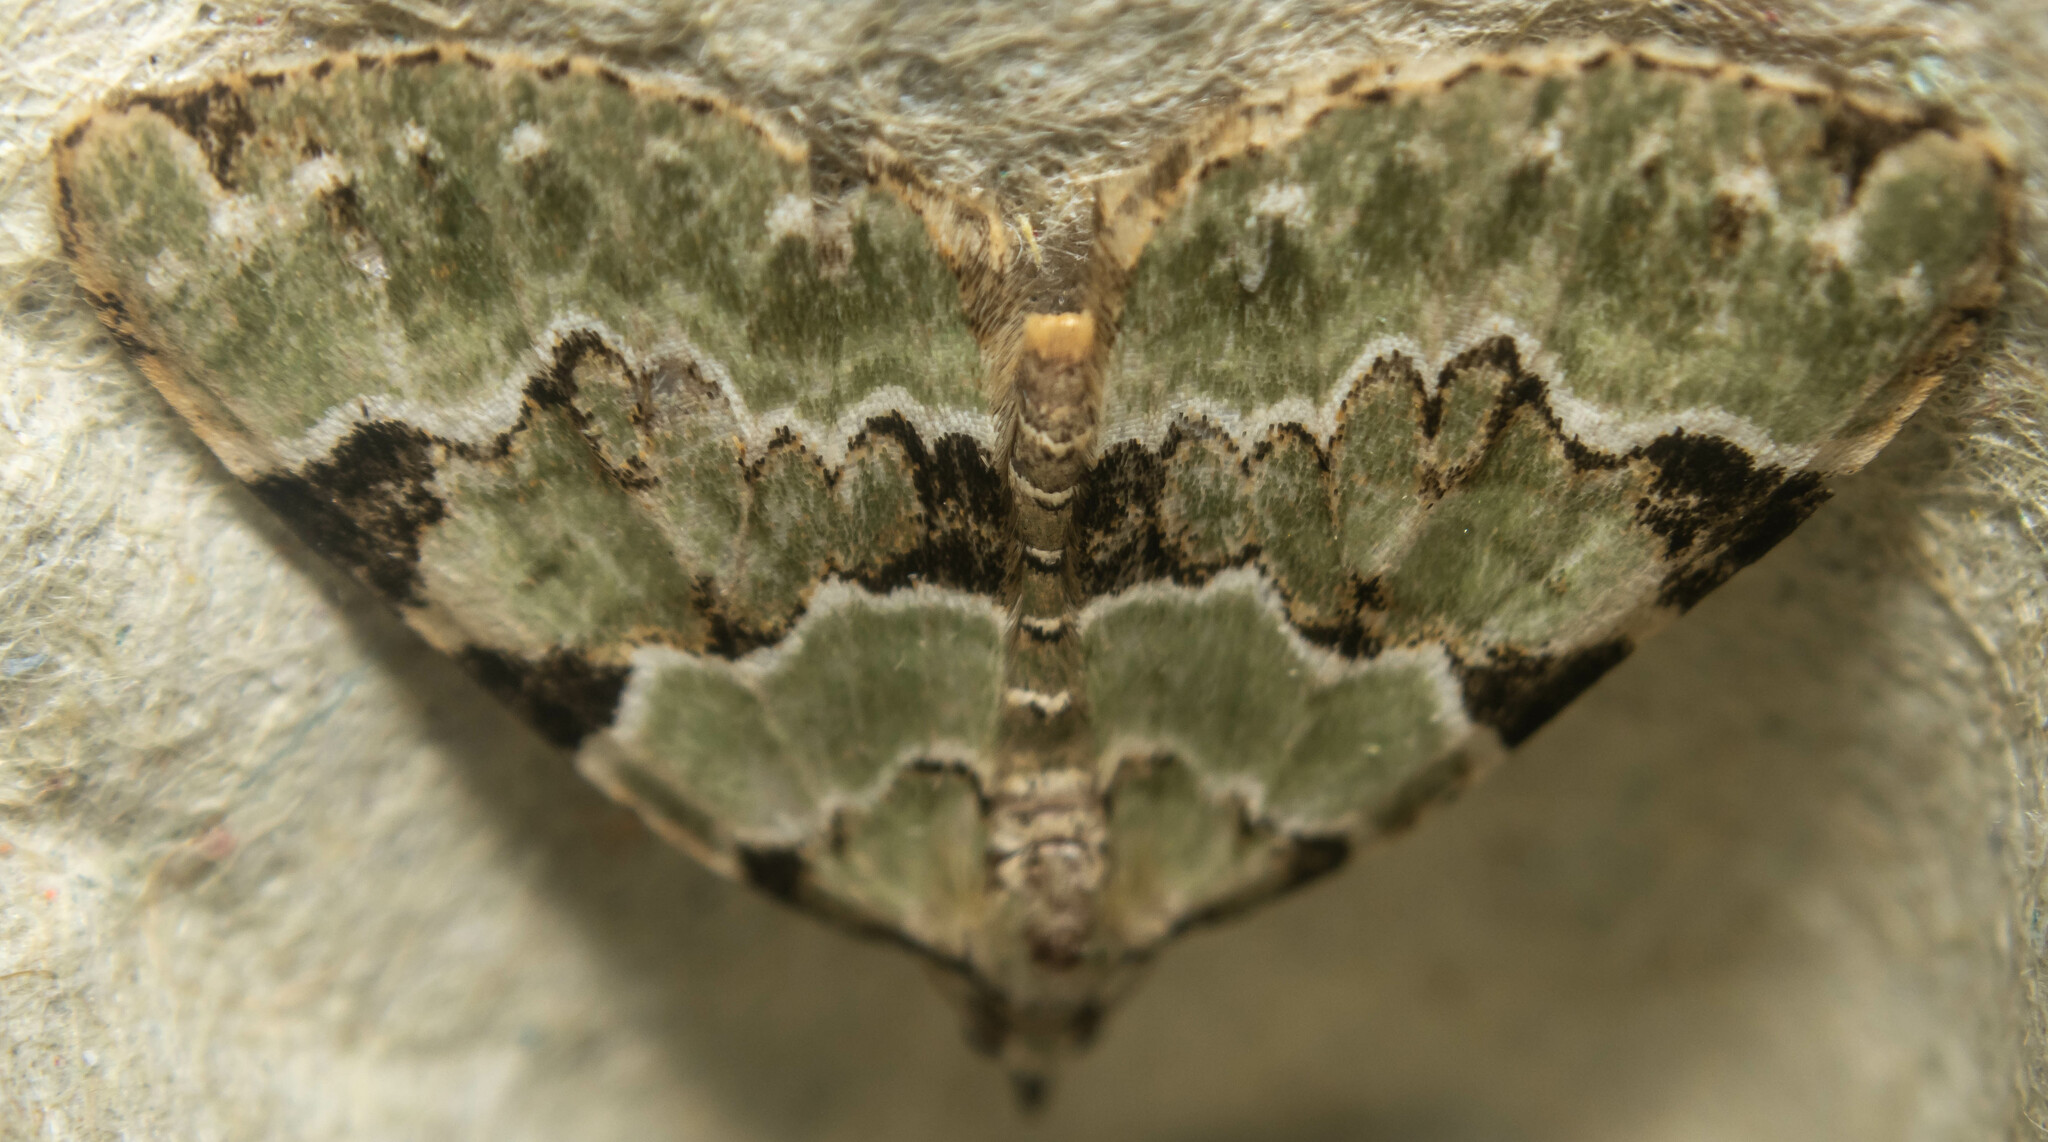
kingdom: Animalia
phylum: Arthropoda
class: Insecta
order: Lepidoptera
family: Geometridae
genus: Colostygia
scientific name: Colostygia pectinataria
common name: Green carpet
